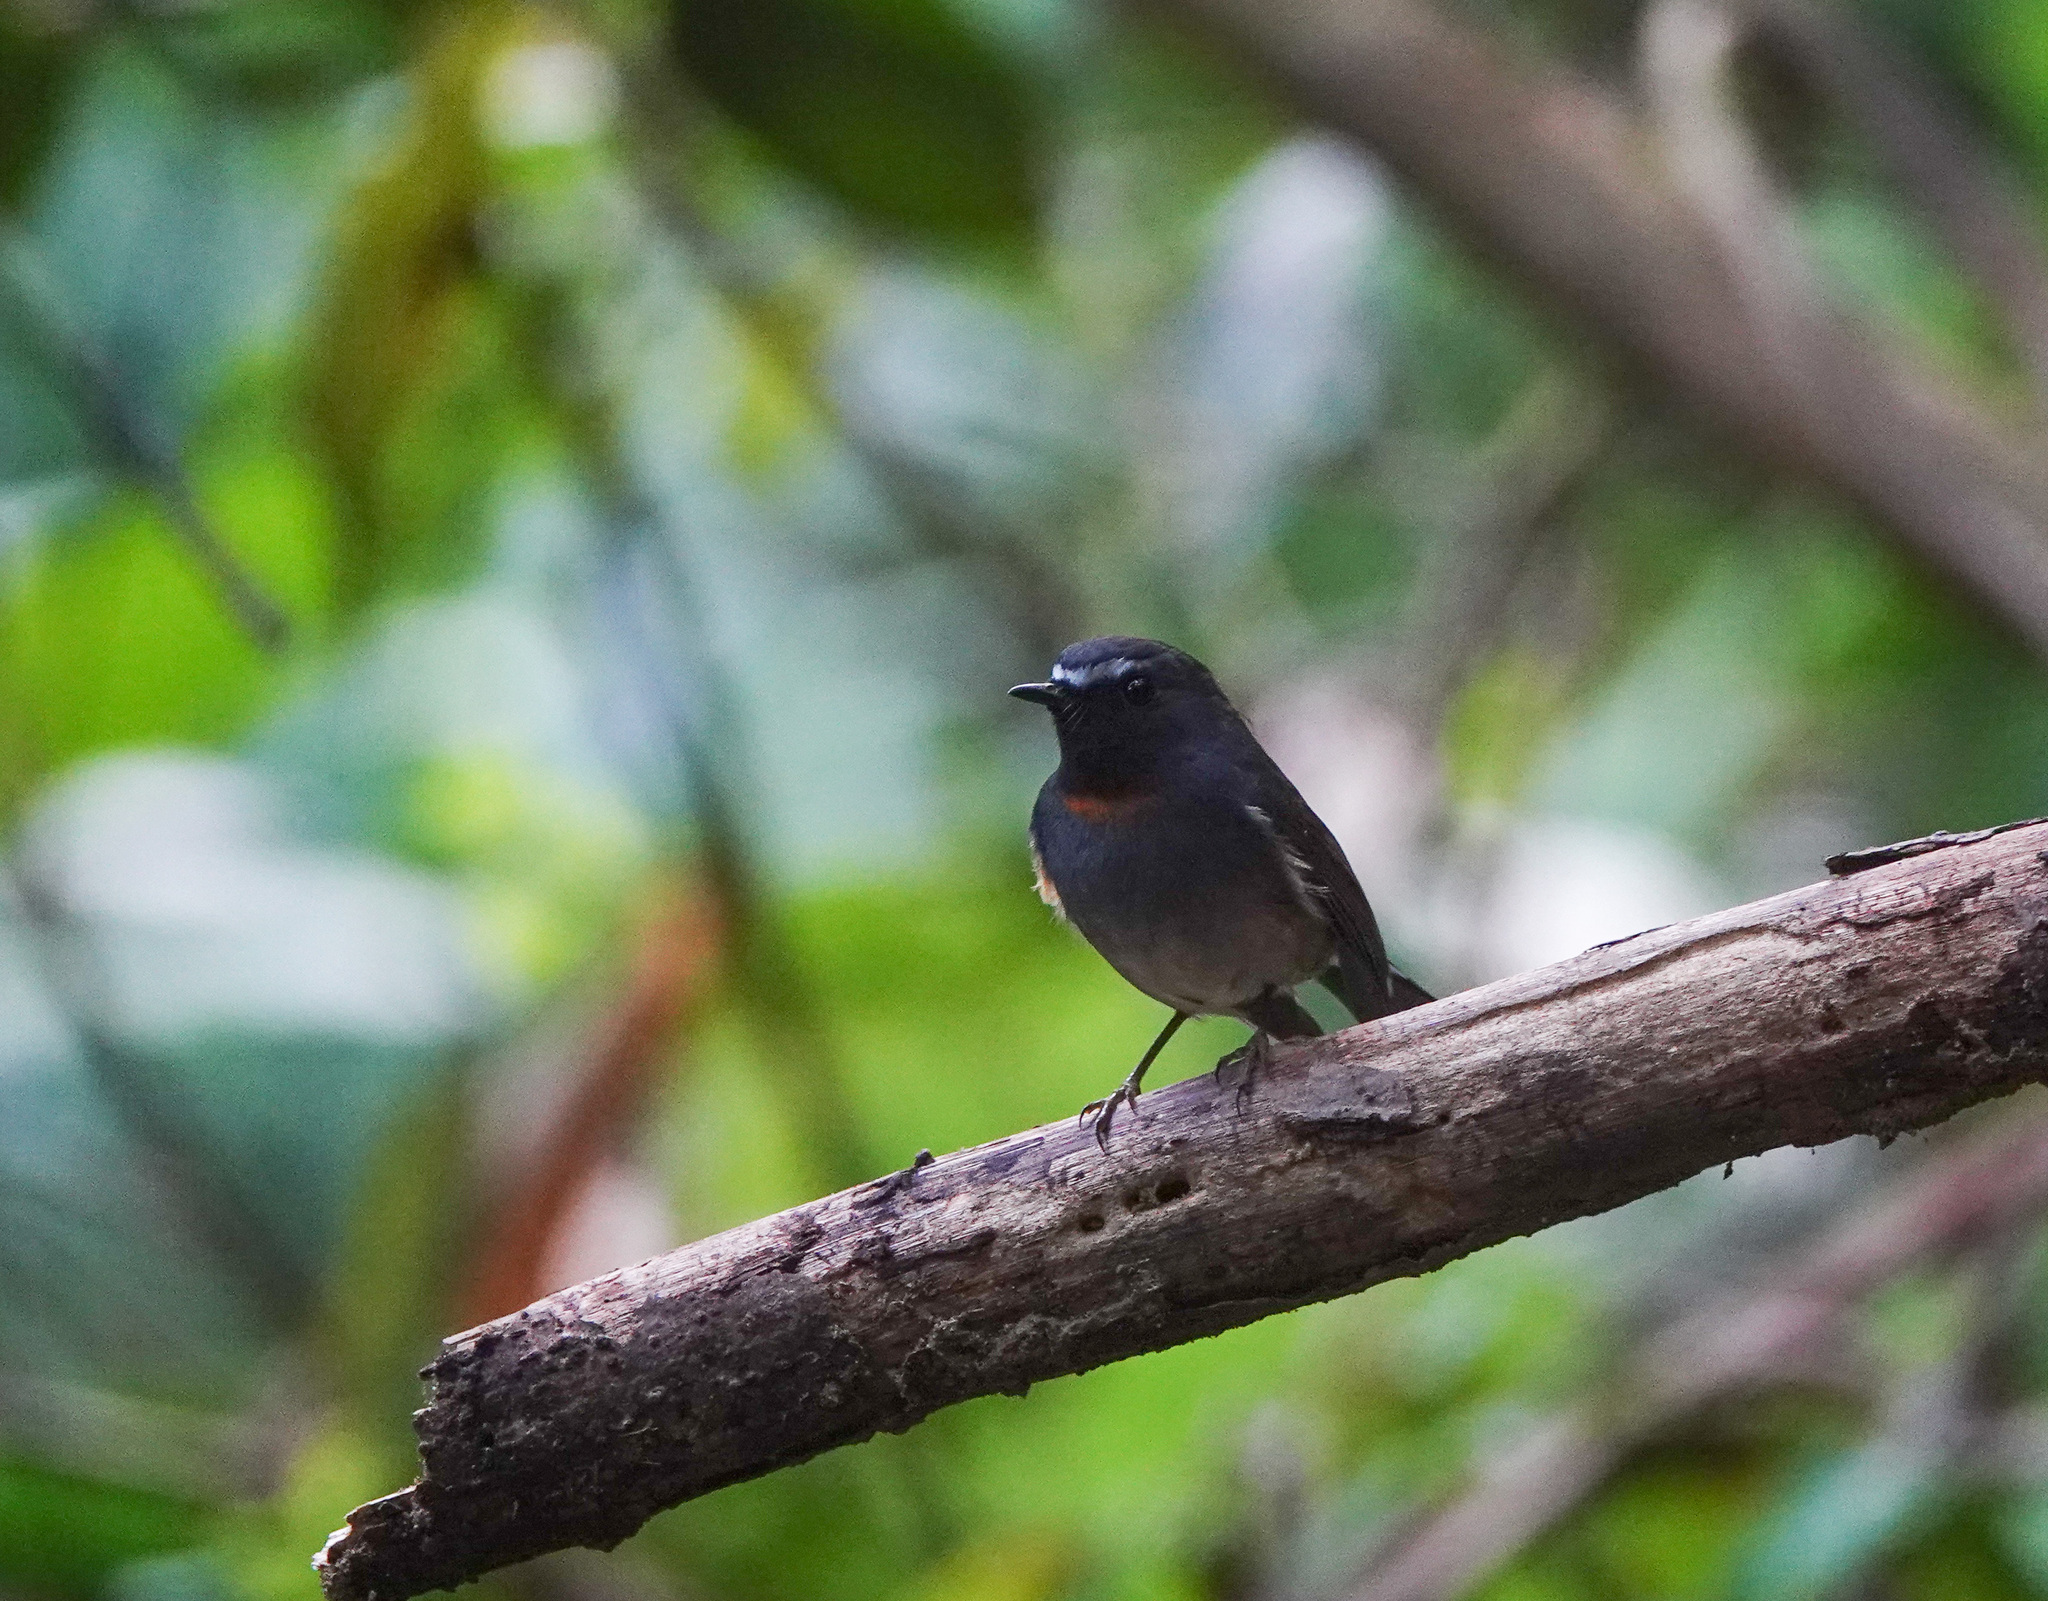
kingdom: Animalia
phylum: Chordata
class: Aves
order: Passeriformes
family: Muscicapidae
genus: Ficedula
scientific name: Ficedula strophiata
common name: Rufous-gorgeted flycatcher
